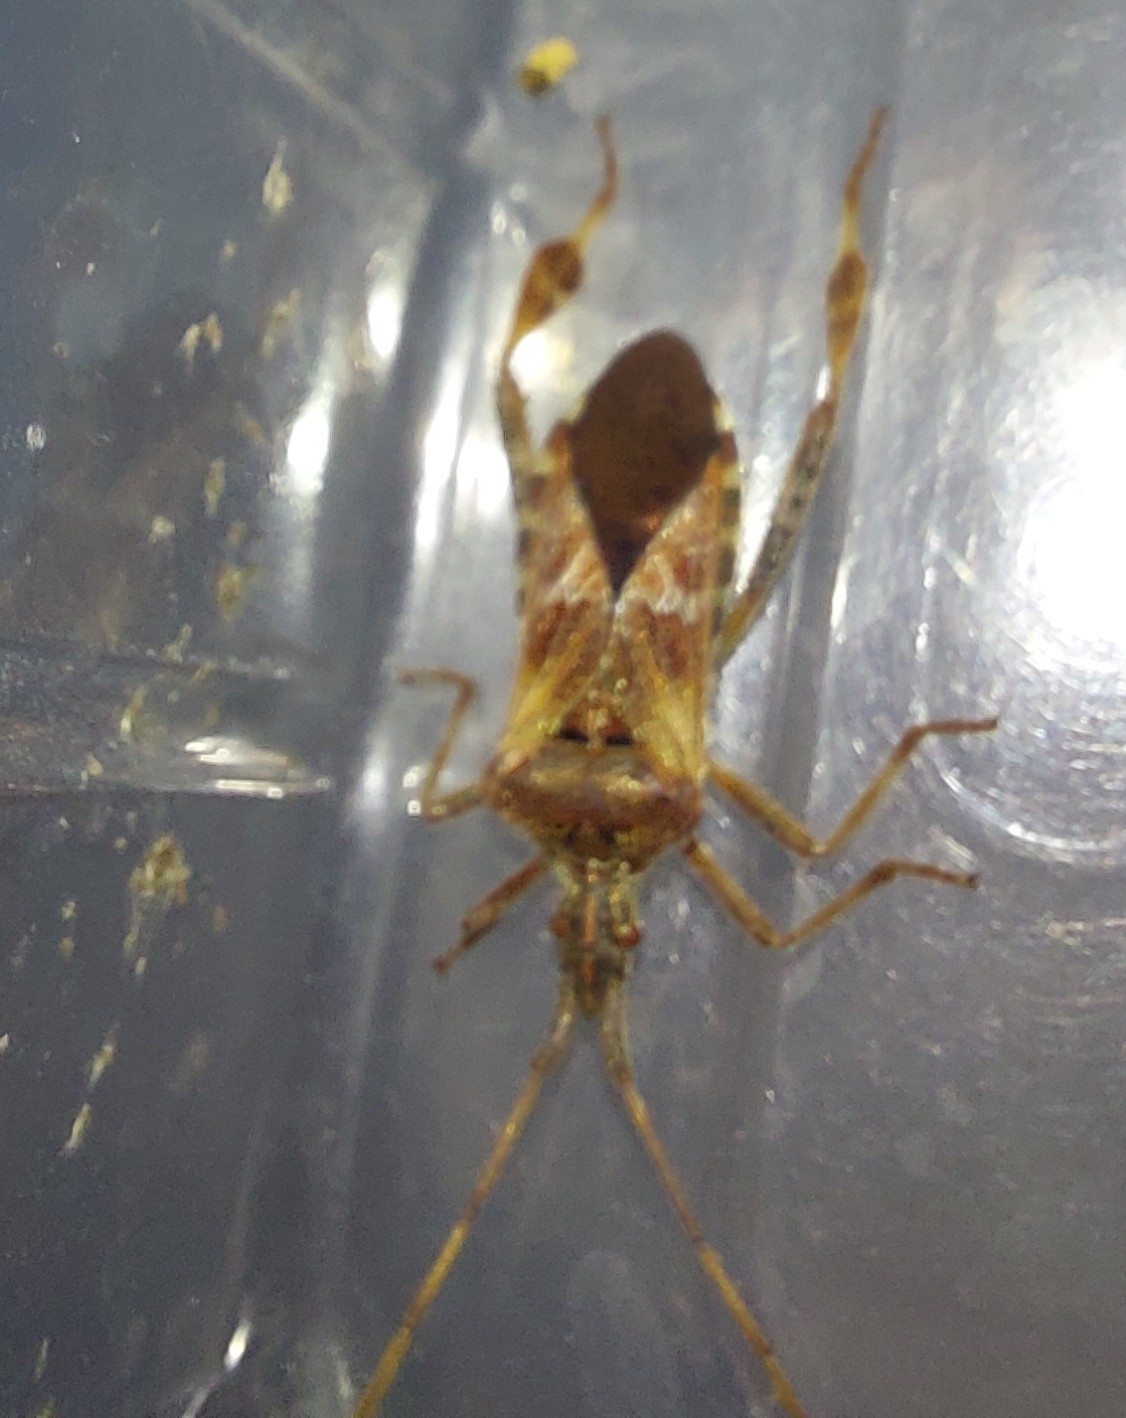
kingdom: Animalia
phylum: Arthropoda
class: Insecta
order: Hemiptera
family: Coreidae
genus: Leptoglossus
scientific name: Leptoglossus occidentalis
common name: Western conifer-seed bug
